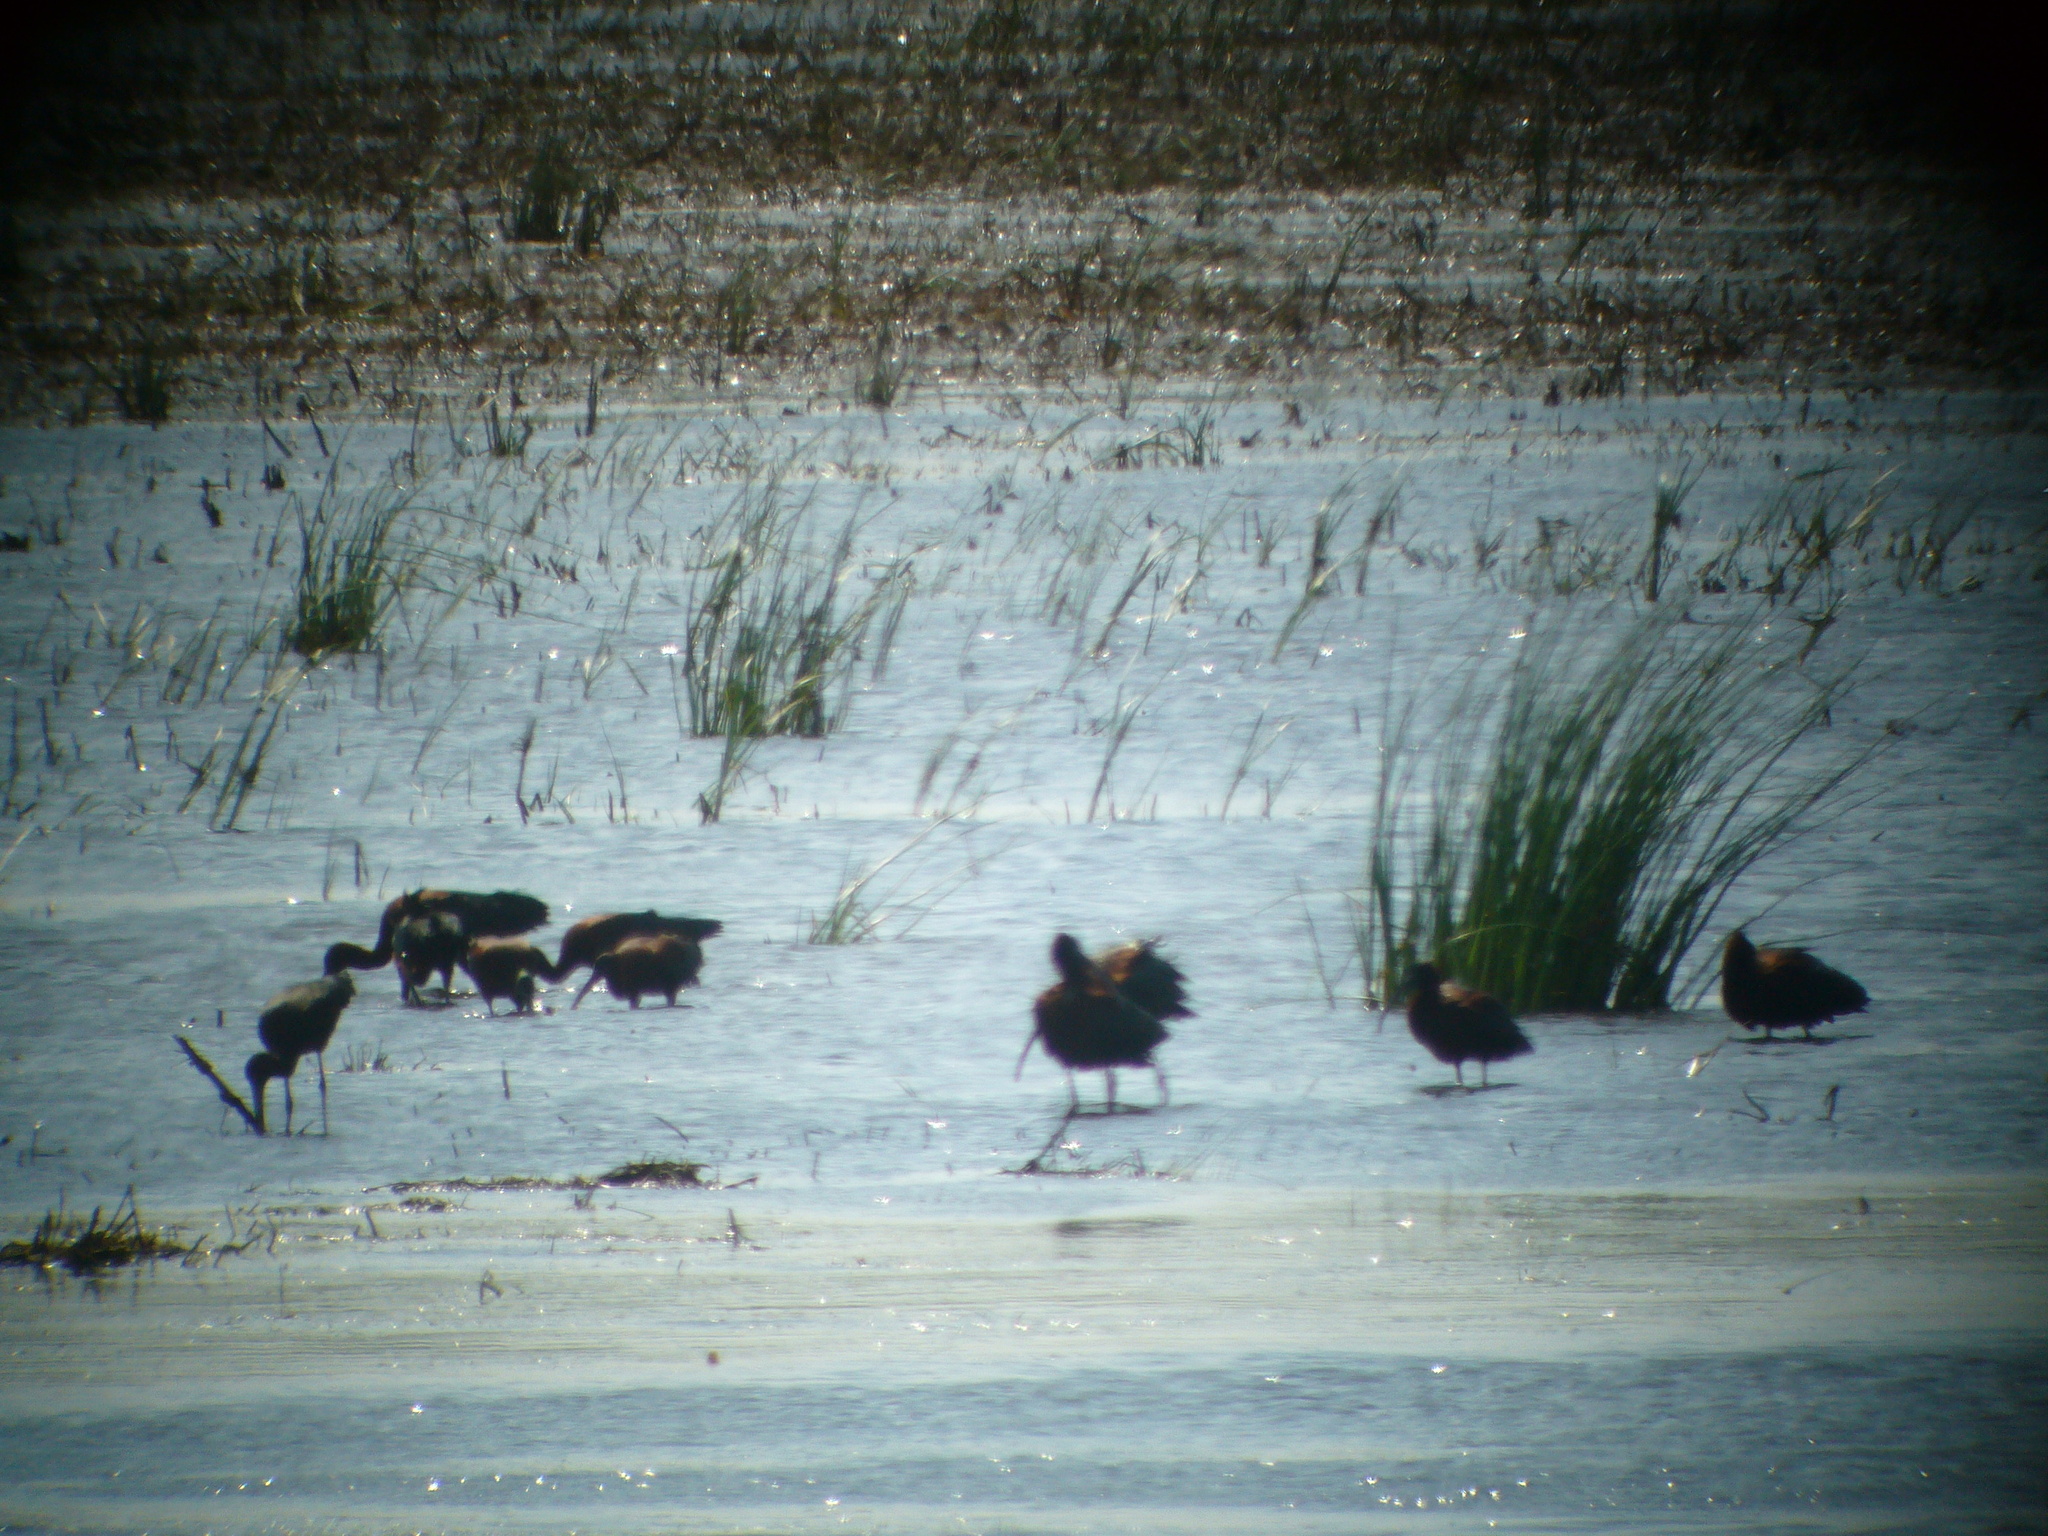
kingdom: Animalia
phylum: Chordata
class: Aves
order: Pelecaniformes
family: Threskiornithidae
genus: Plegadis
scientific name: Plegadis falcinellus
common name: Glossy ibis
